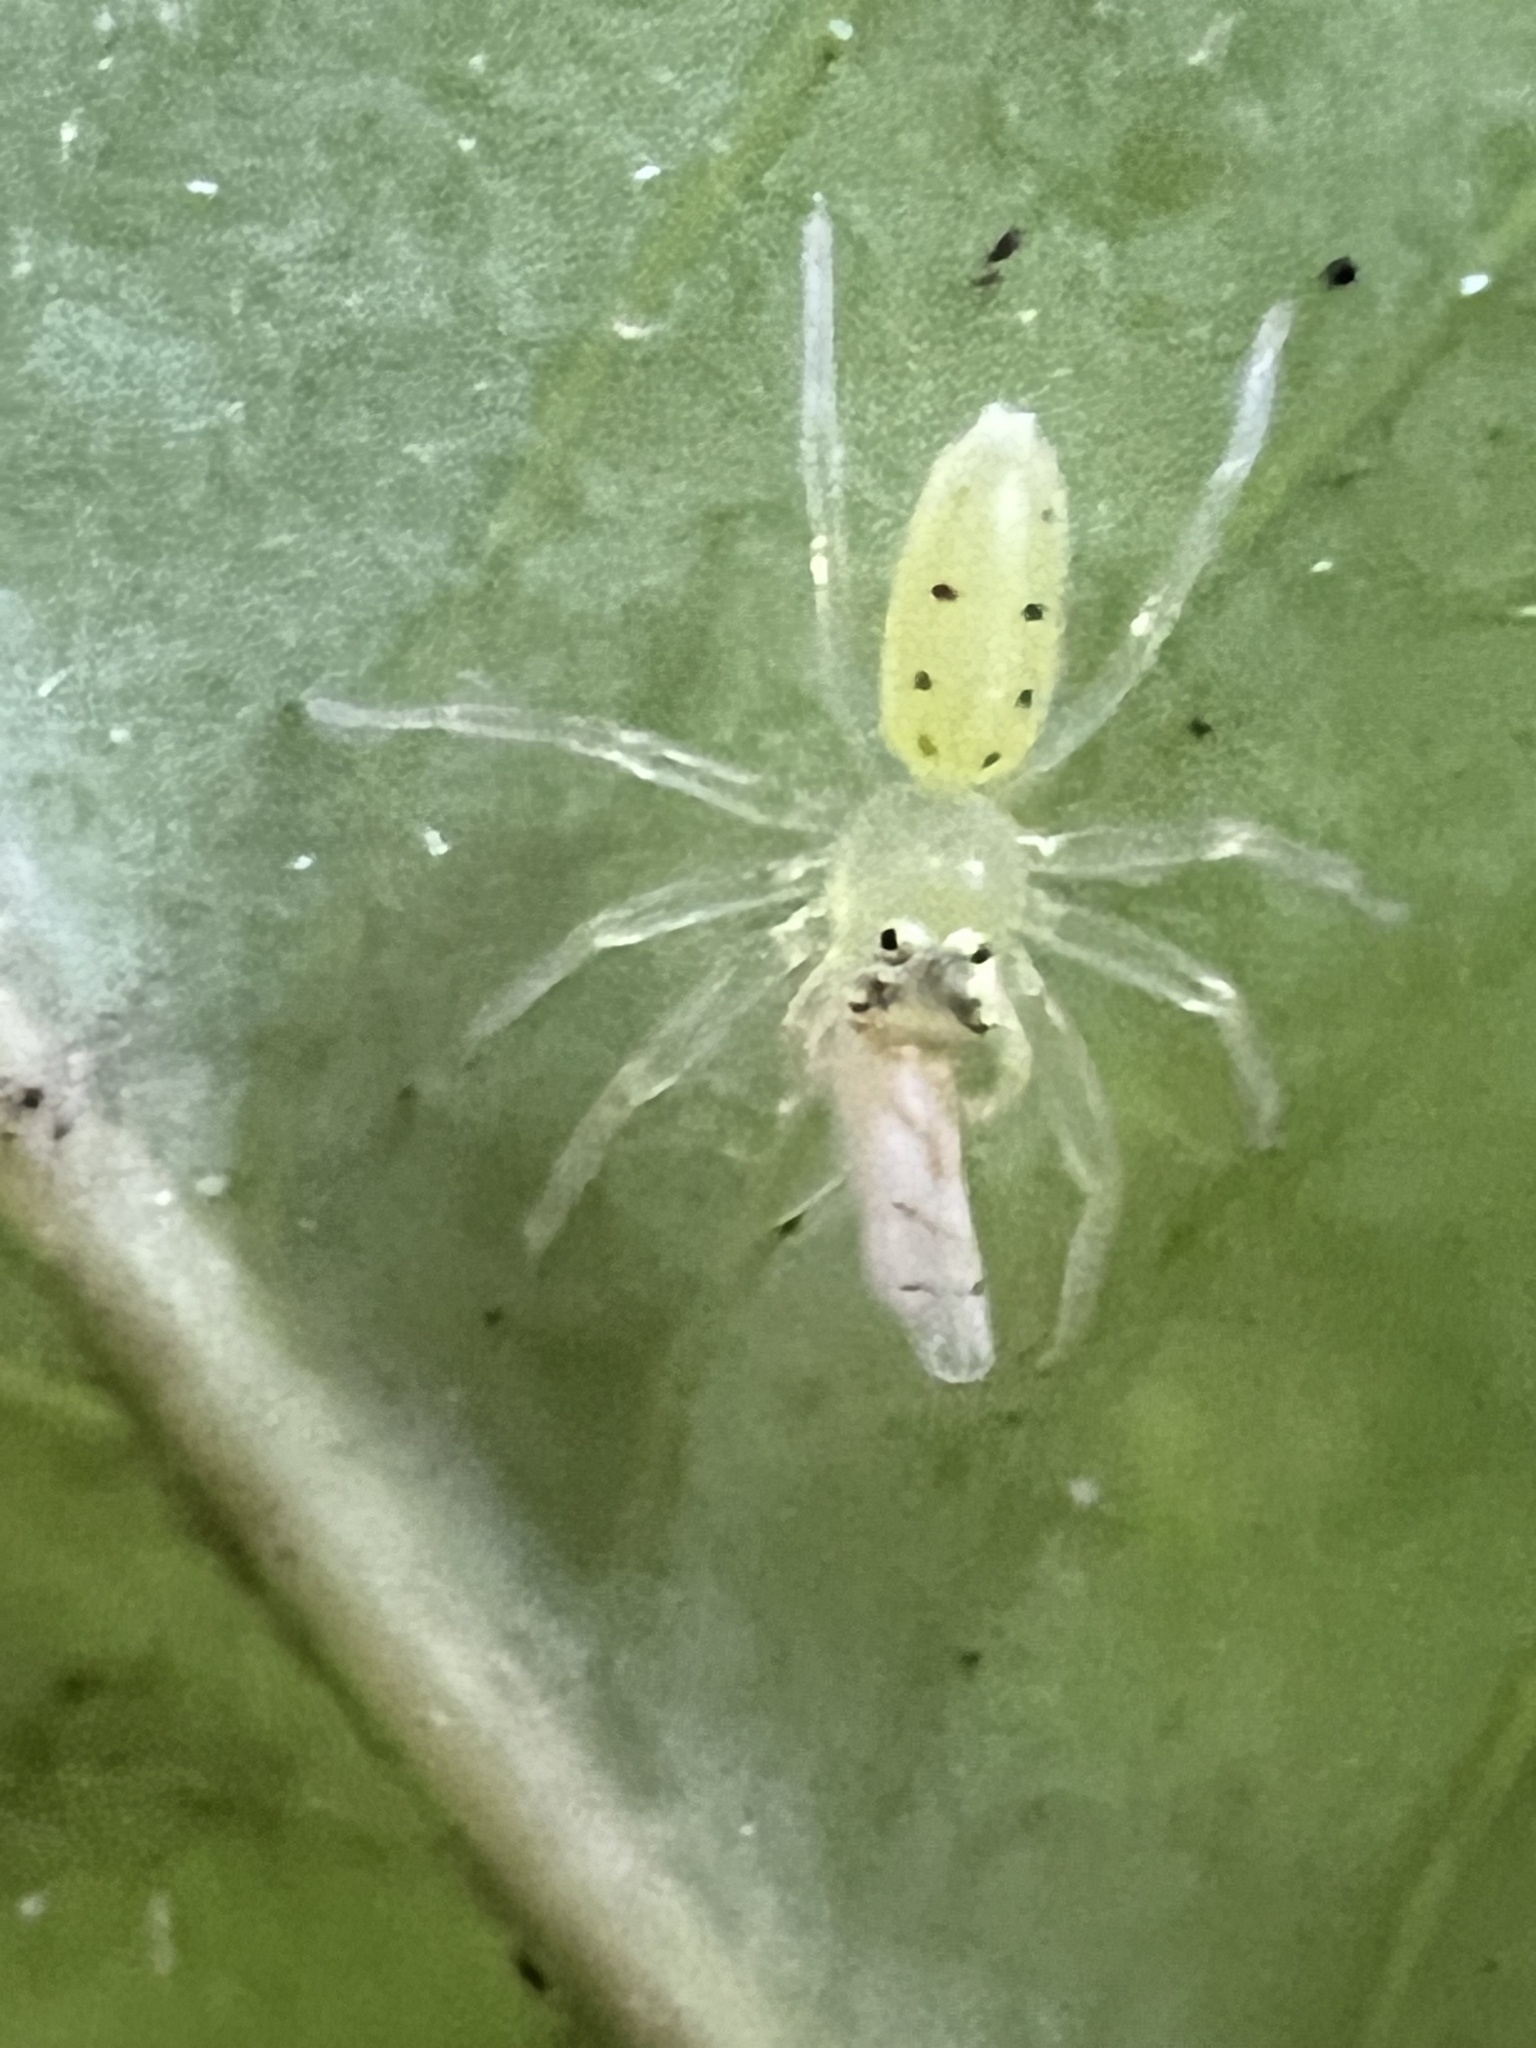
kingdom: Animalia
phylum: Arthropoda
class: Arachnida
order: Araneae
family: Salticidae
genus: Lyssomanes
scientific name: Lyssomanes viridis
